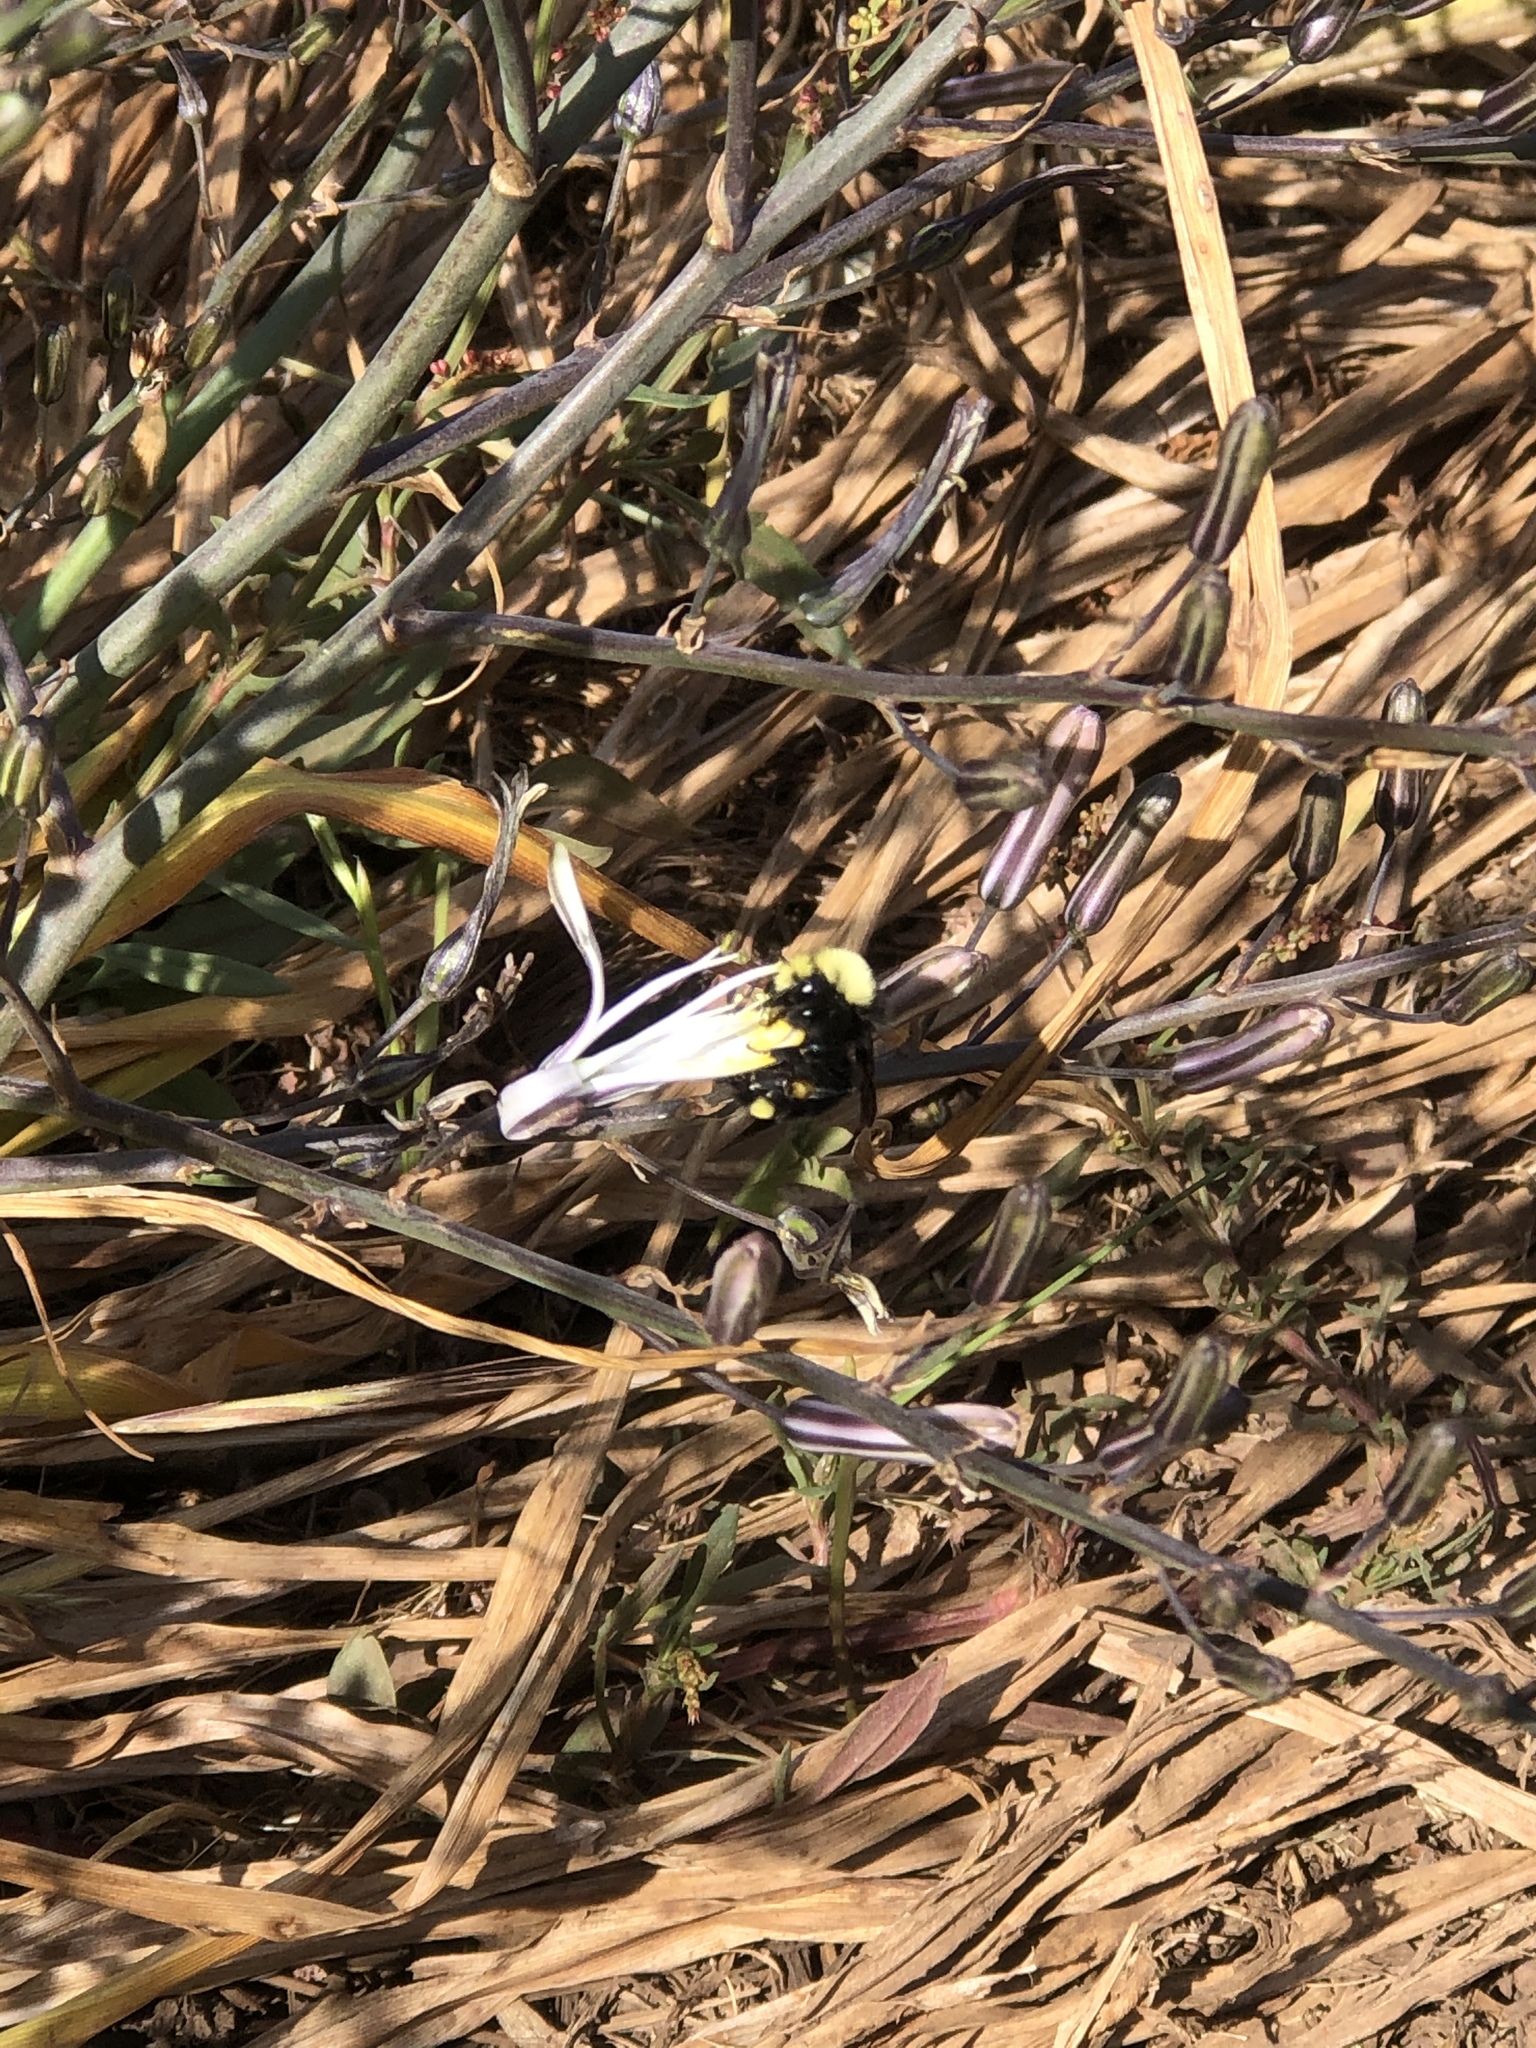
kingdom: Animalia
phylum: Arthropoda
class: Insecta
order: Hymenoptera
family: Apidae
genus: Bombus
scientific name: Bombus vosnesenskii
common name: Vosnesensky bumble bee
